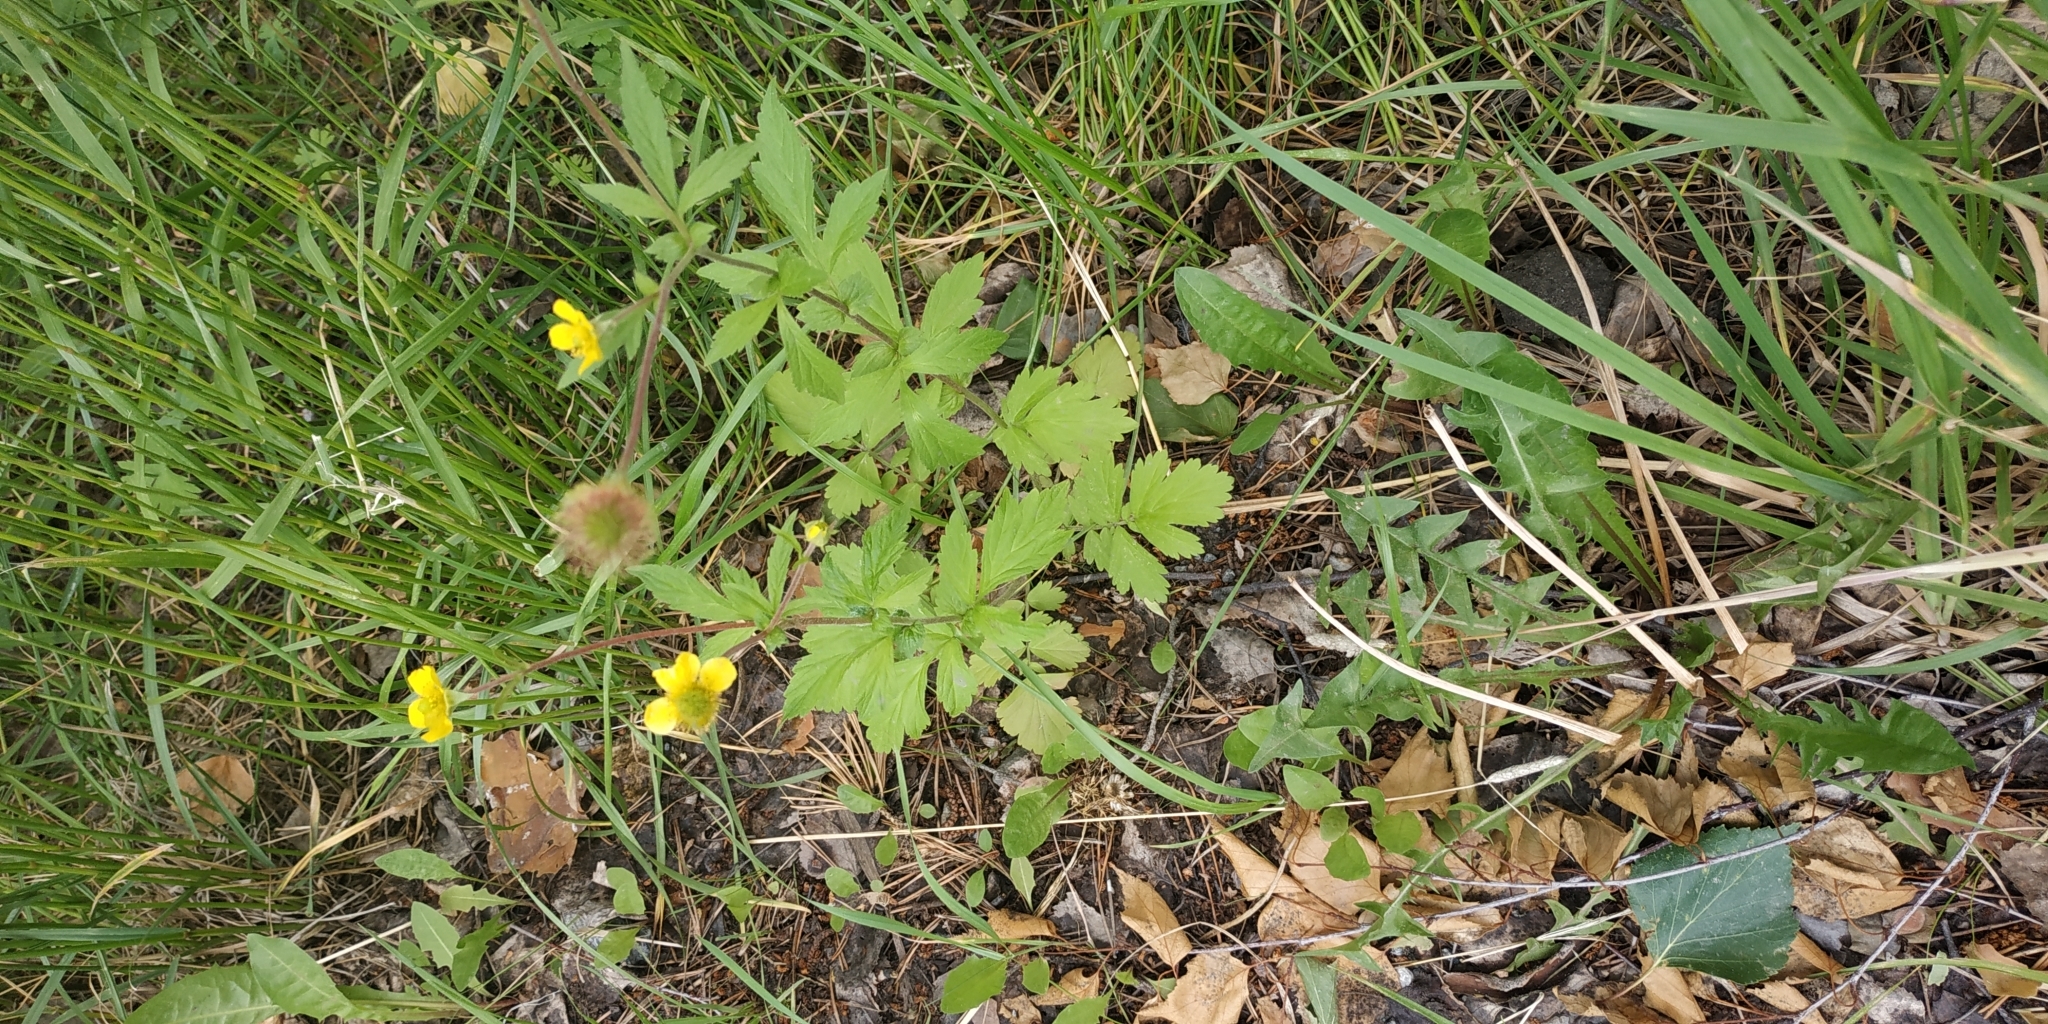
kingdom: Plantae
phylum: Tracheophyta
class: Magnoliopsida
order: Rosales
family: Rosaceae
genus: Geum
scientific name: Geum aleppicum
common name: Yellow avens
